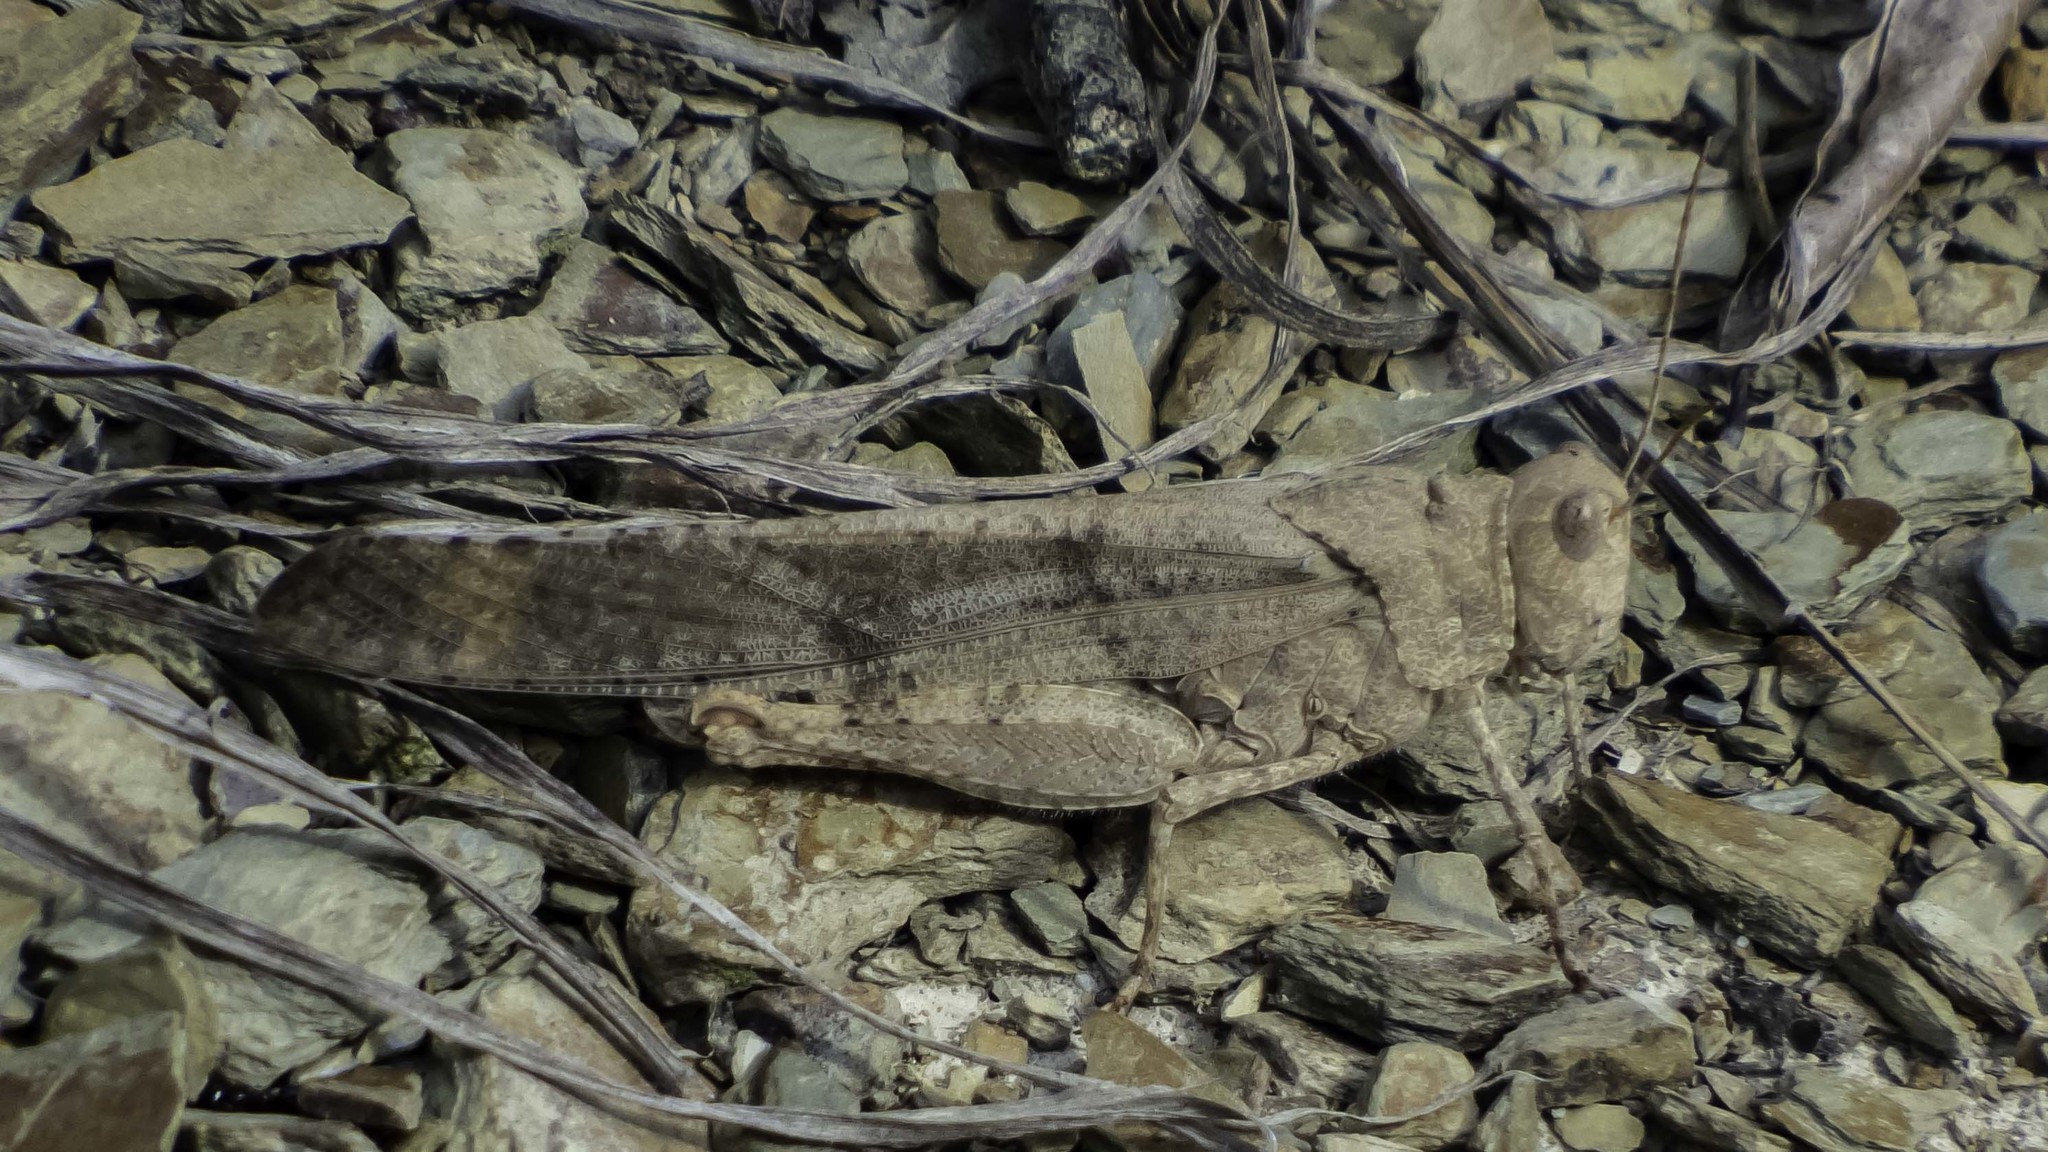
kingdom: Animalia
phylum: Arthropoda
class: Insecta
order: Orthoptera
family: Acrididae
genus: Dissosteira
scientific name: Dissosteira carolina
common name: Carolina grasshopper
